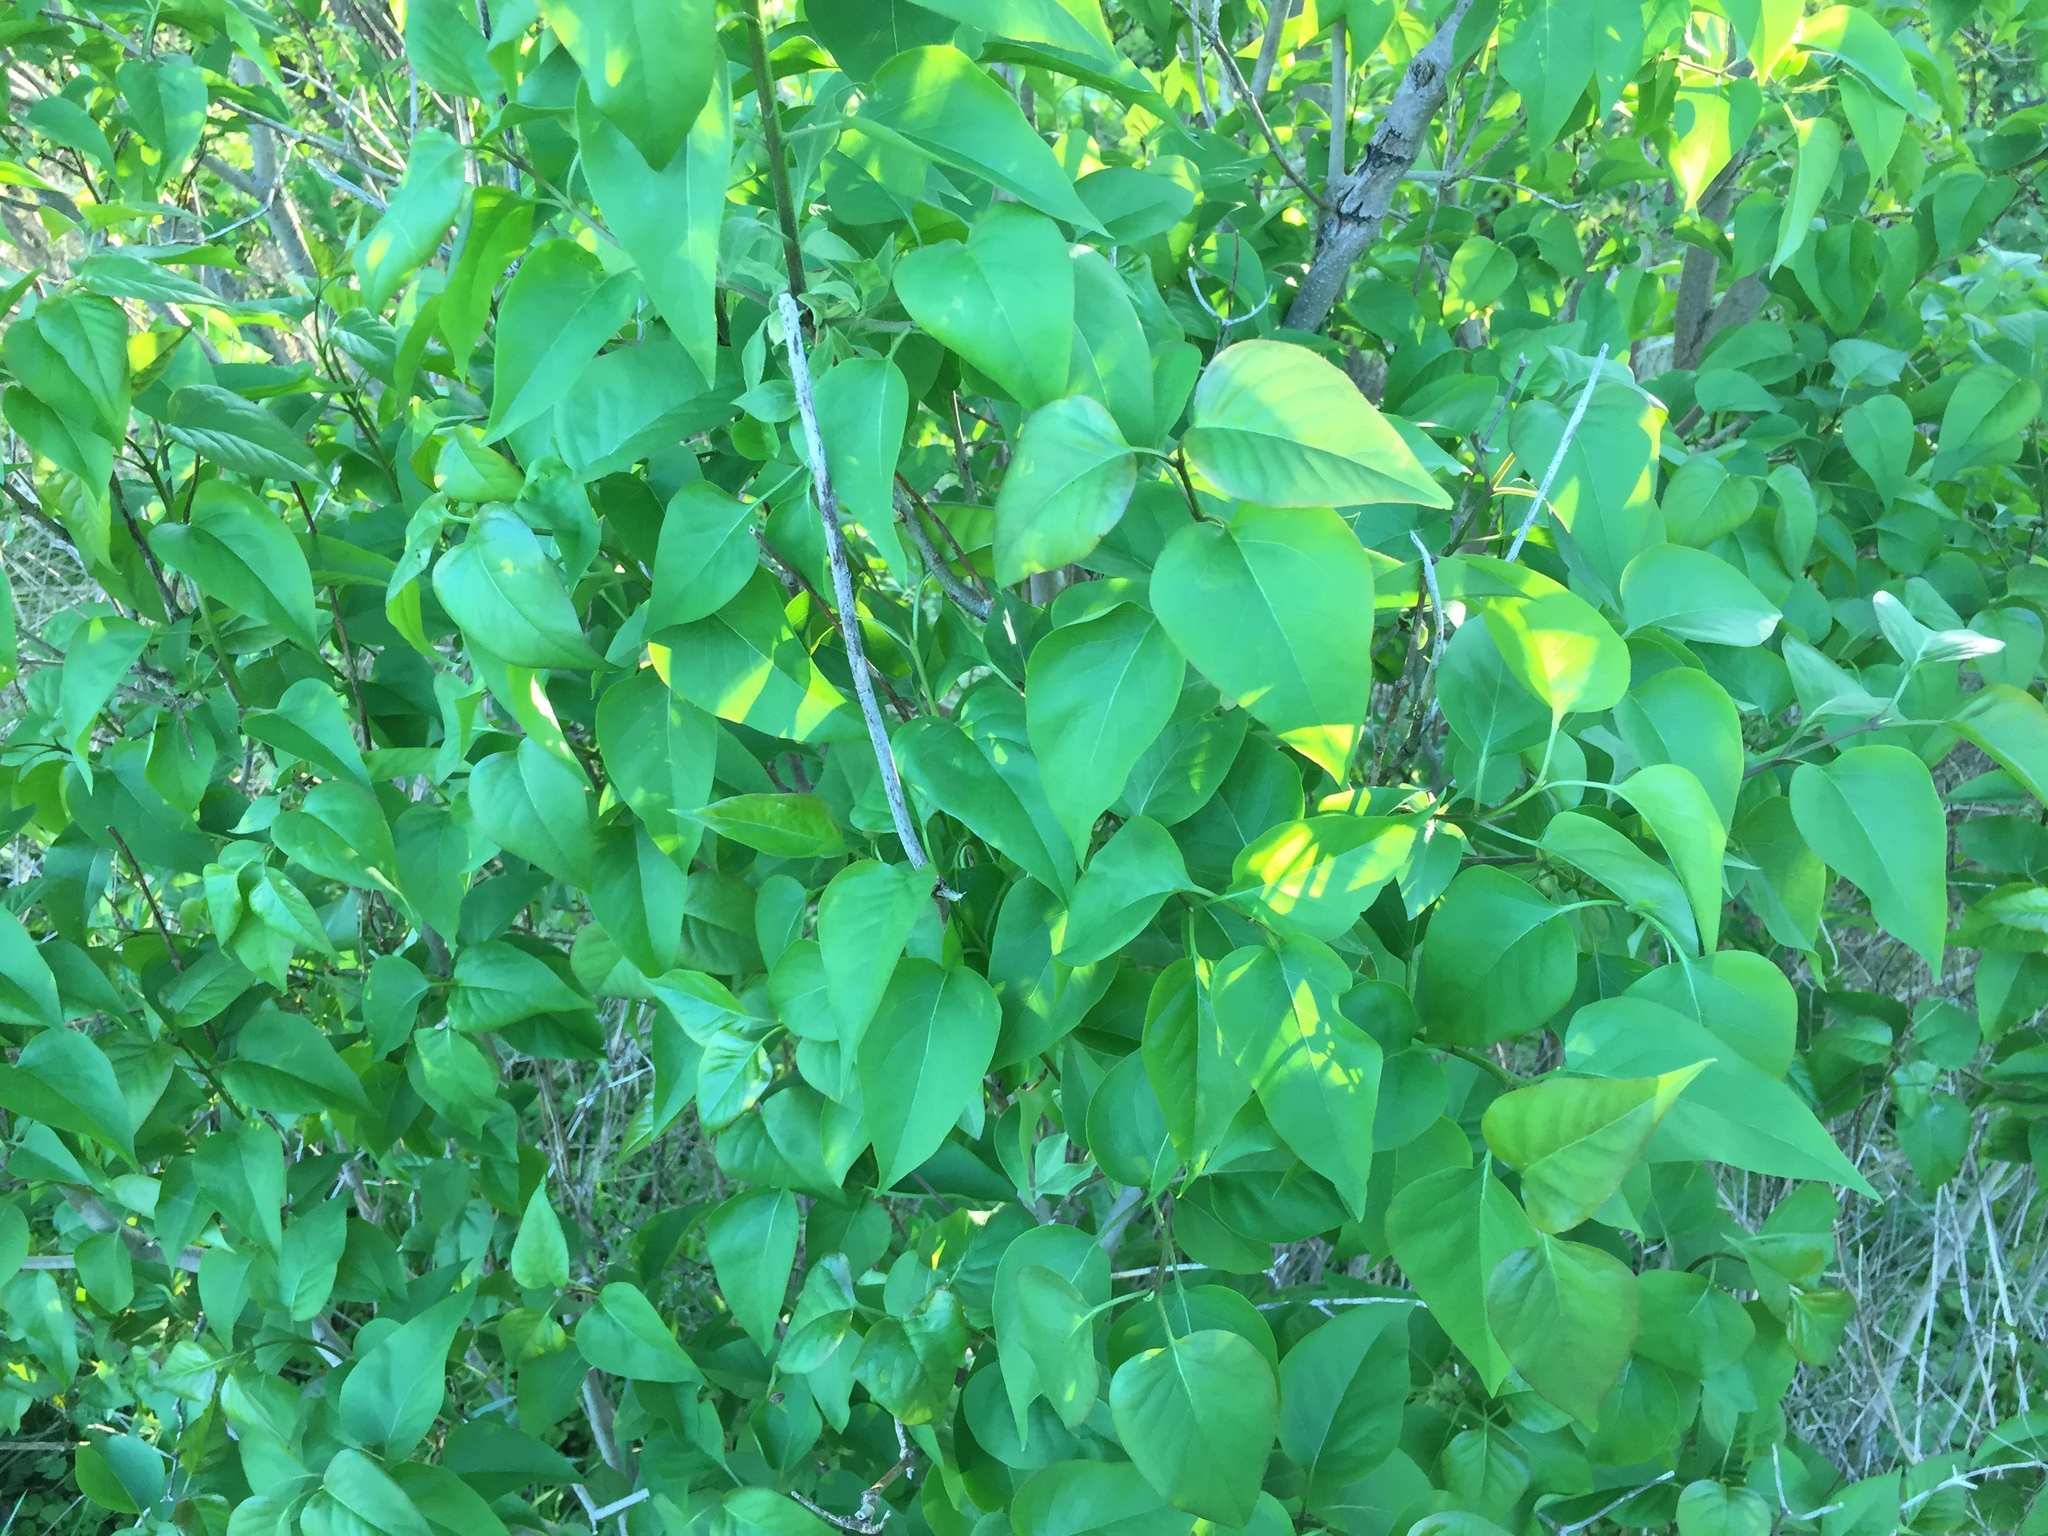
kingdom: Plantae
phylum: Tracheophyta
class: Magnoliopsida
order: Lamiales
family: Oleaceae
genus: Syringa
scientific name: Syringa vulgaris
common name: Common lilac
